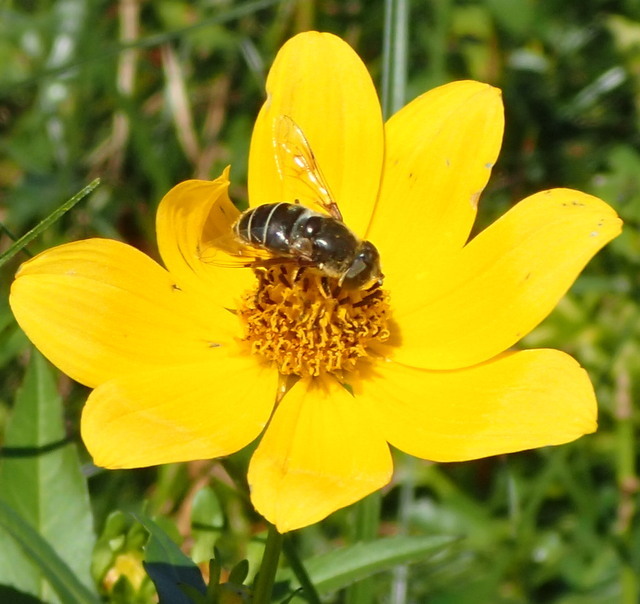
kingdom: Animalia
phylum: Arthropoda
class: Insecta
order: Diptera
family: Syrphidae
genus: Eristalis
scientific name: Eristalis dimidiata
